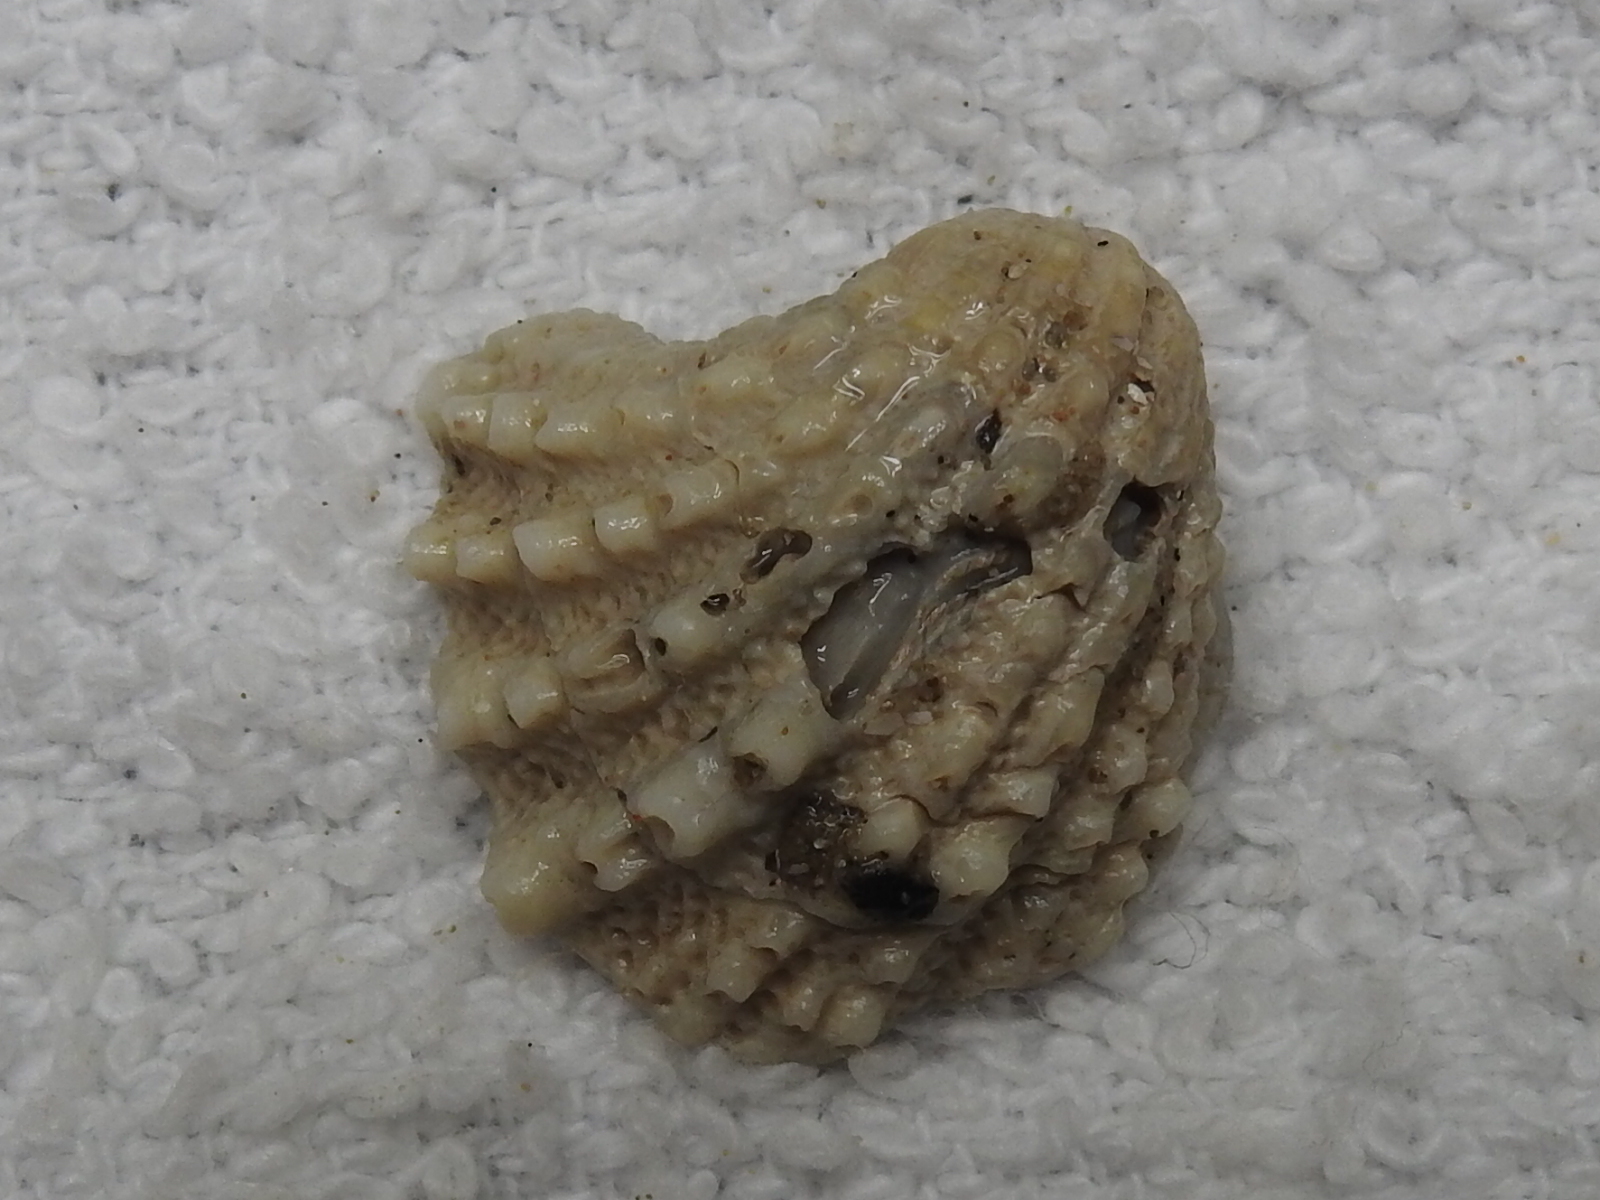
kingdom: Animalia
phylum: Mollusca
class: Bivalvia
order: Venerida
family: Chamidae
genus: Arcinella
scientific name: Arcinella cornuta
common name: Florida spiny jewel box
